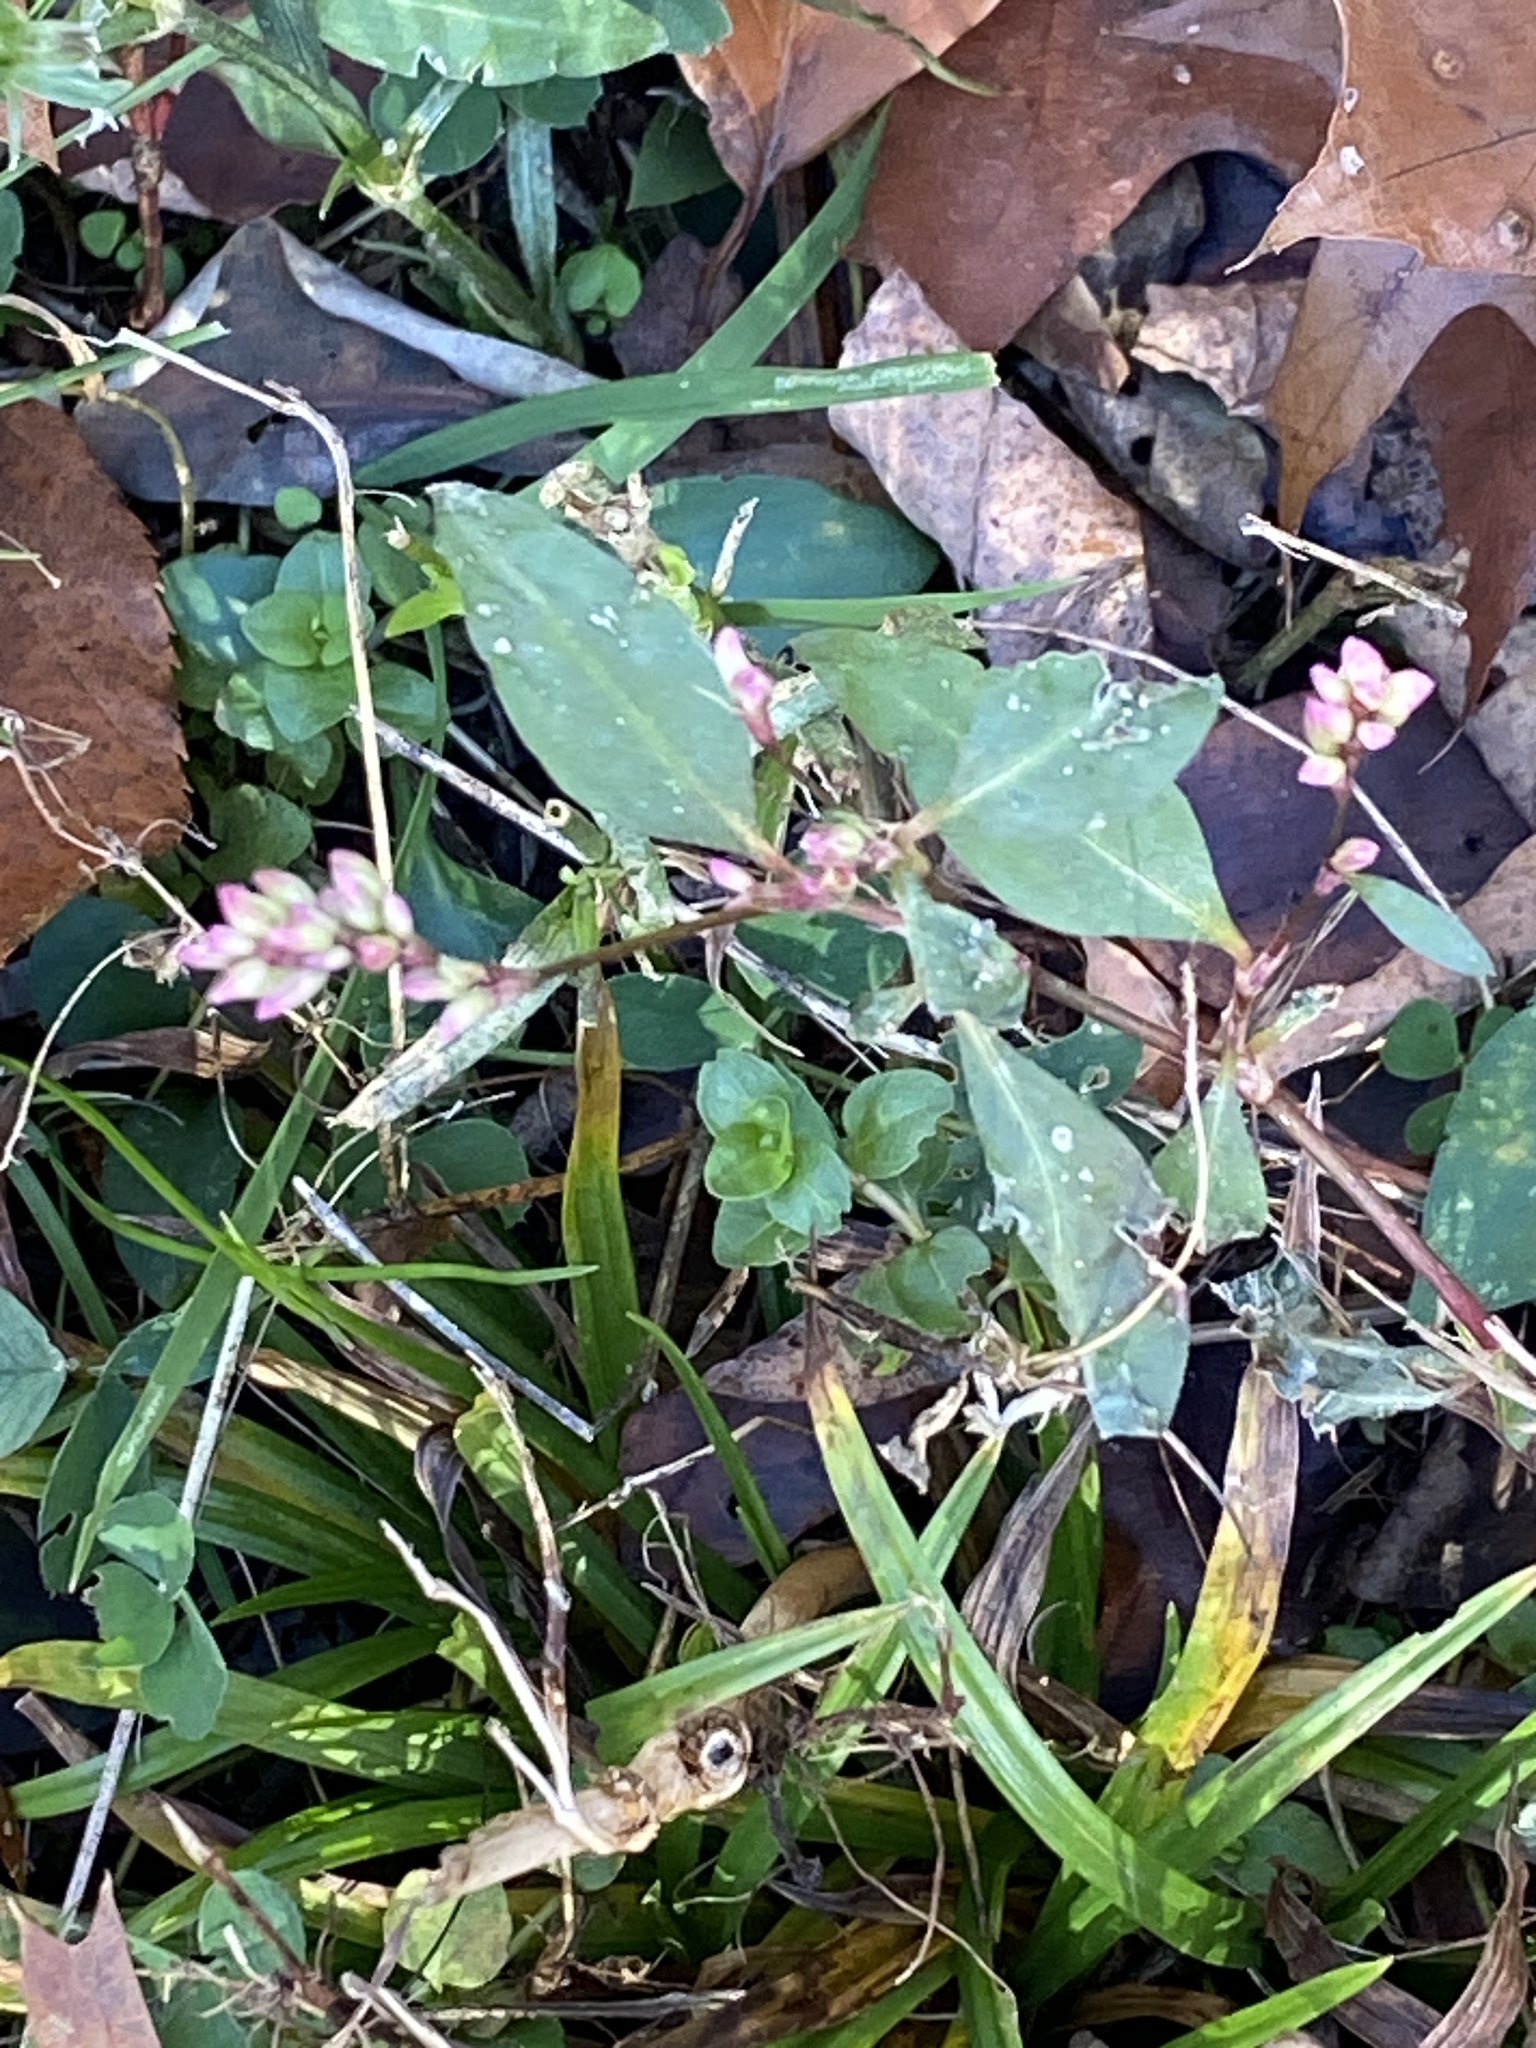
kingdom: Plantae
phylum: Tracheophyta
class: Magnoliopsida
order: Caryophyllales
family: Polygonaceae
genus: Persicaria
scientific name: Persicaria longiseta
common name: Bristly lady's-thumb
